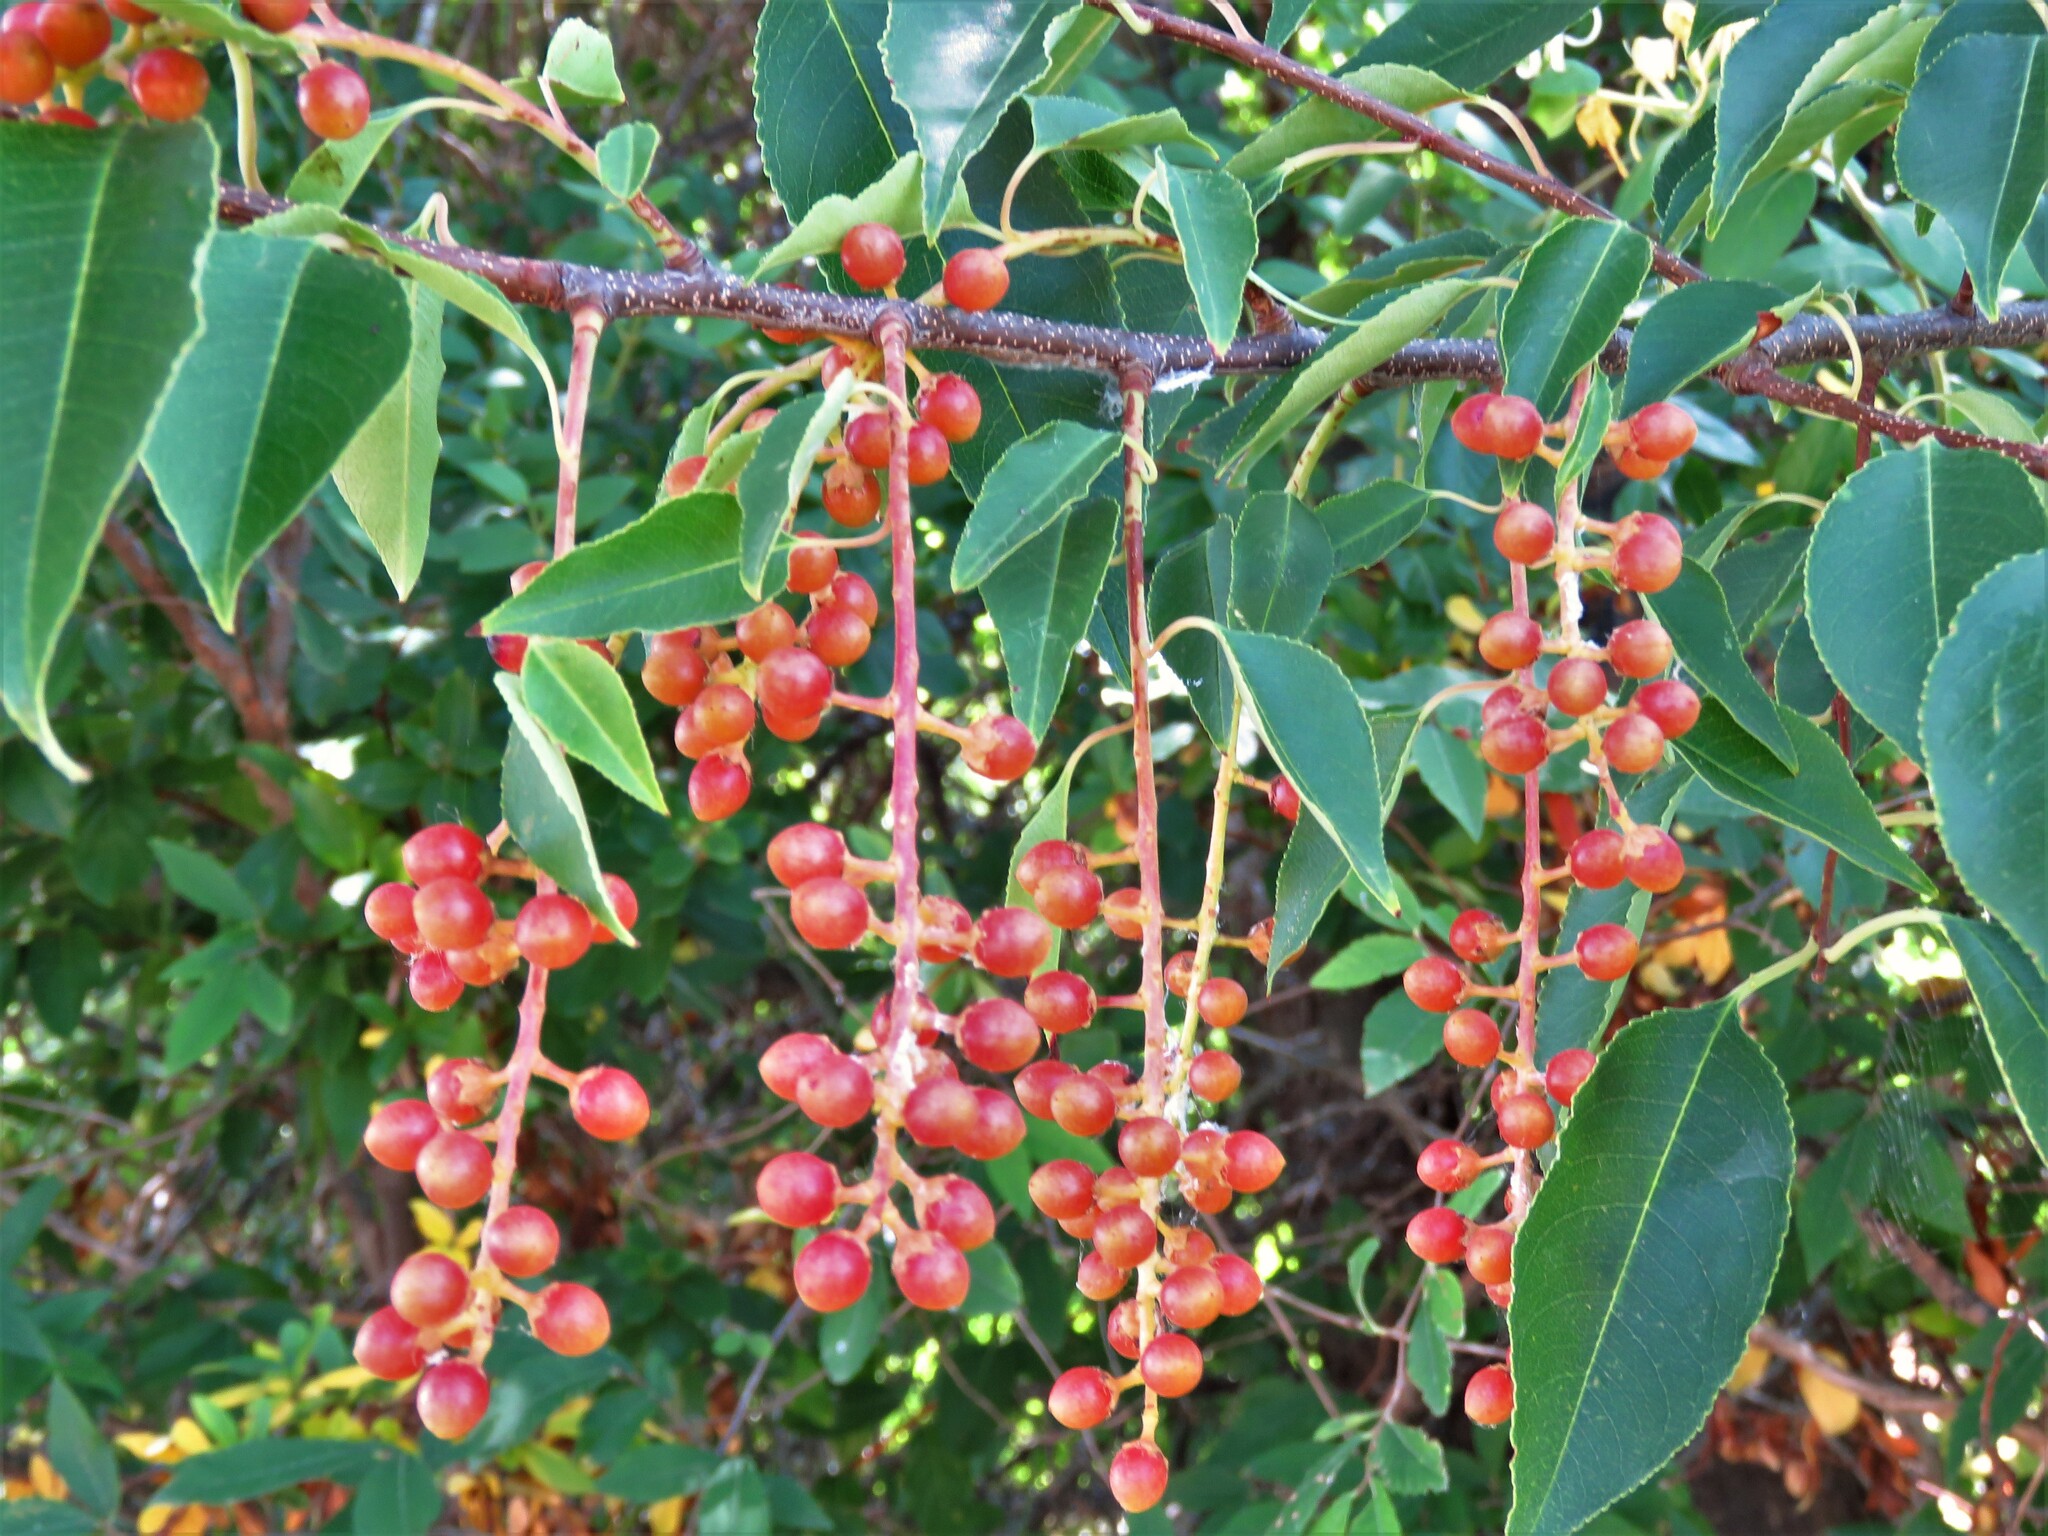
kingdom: Plantae
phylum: Tracheophyta
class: Magnoliopsida
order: Rosales
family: Rosaceae
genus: Prunus
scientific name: Prunus serotina
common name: Black cherry
